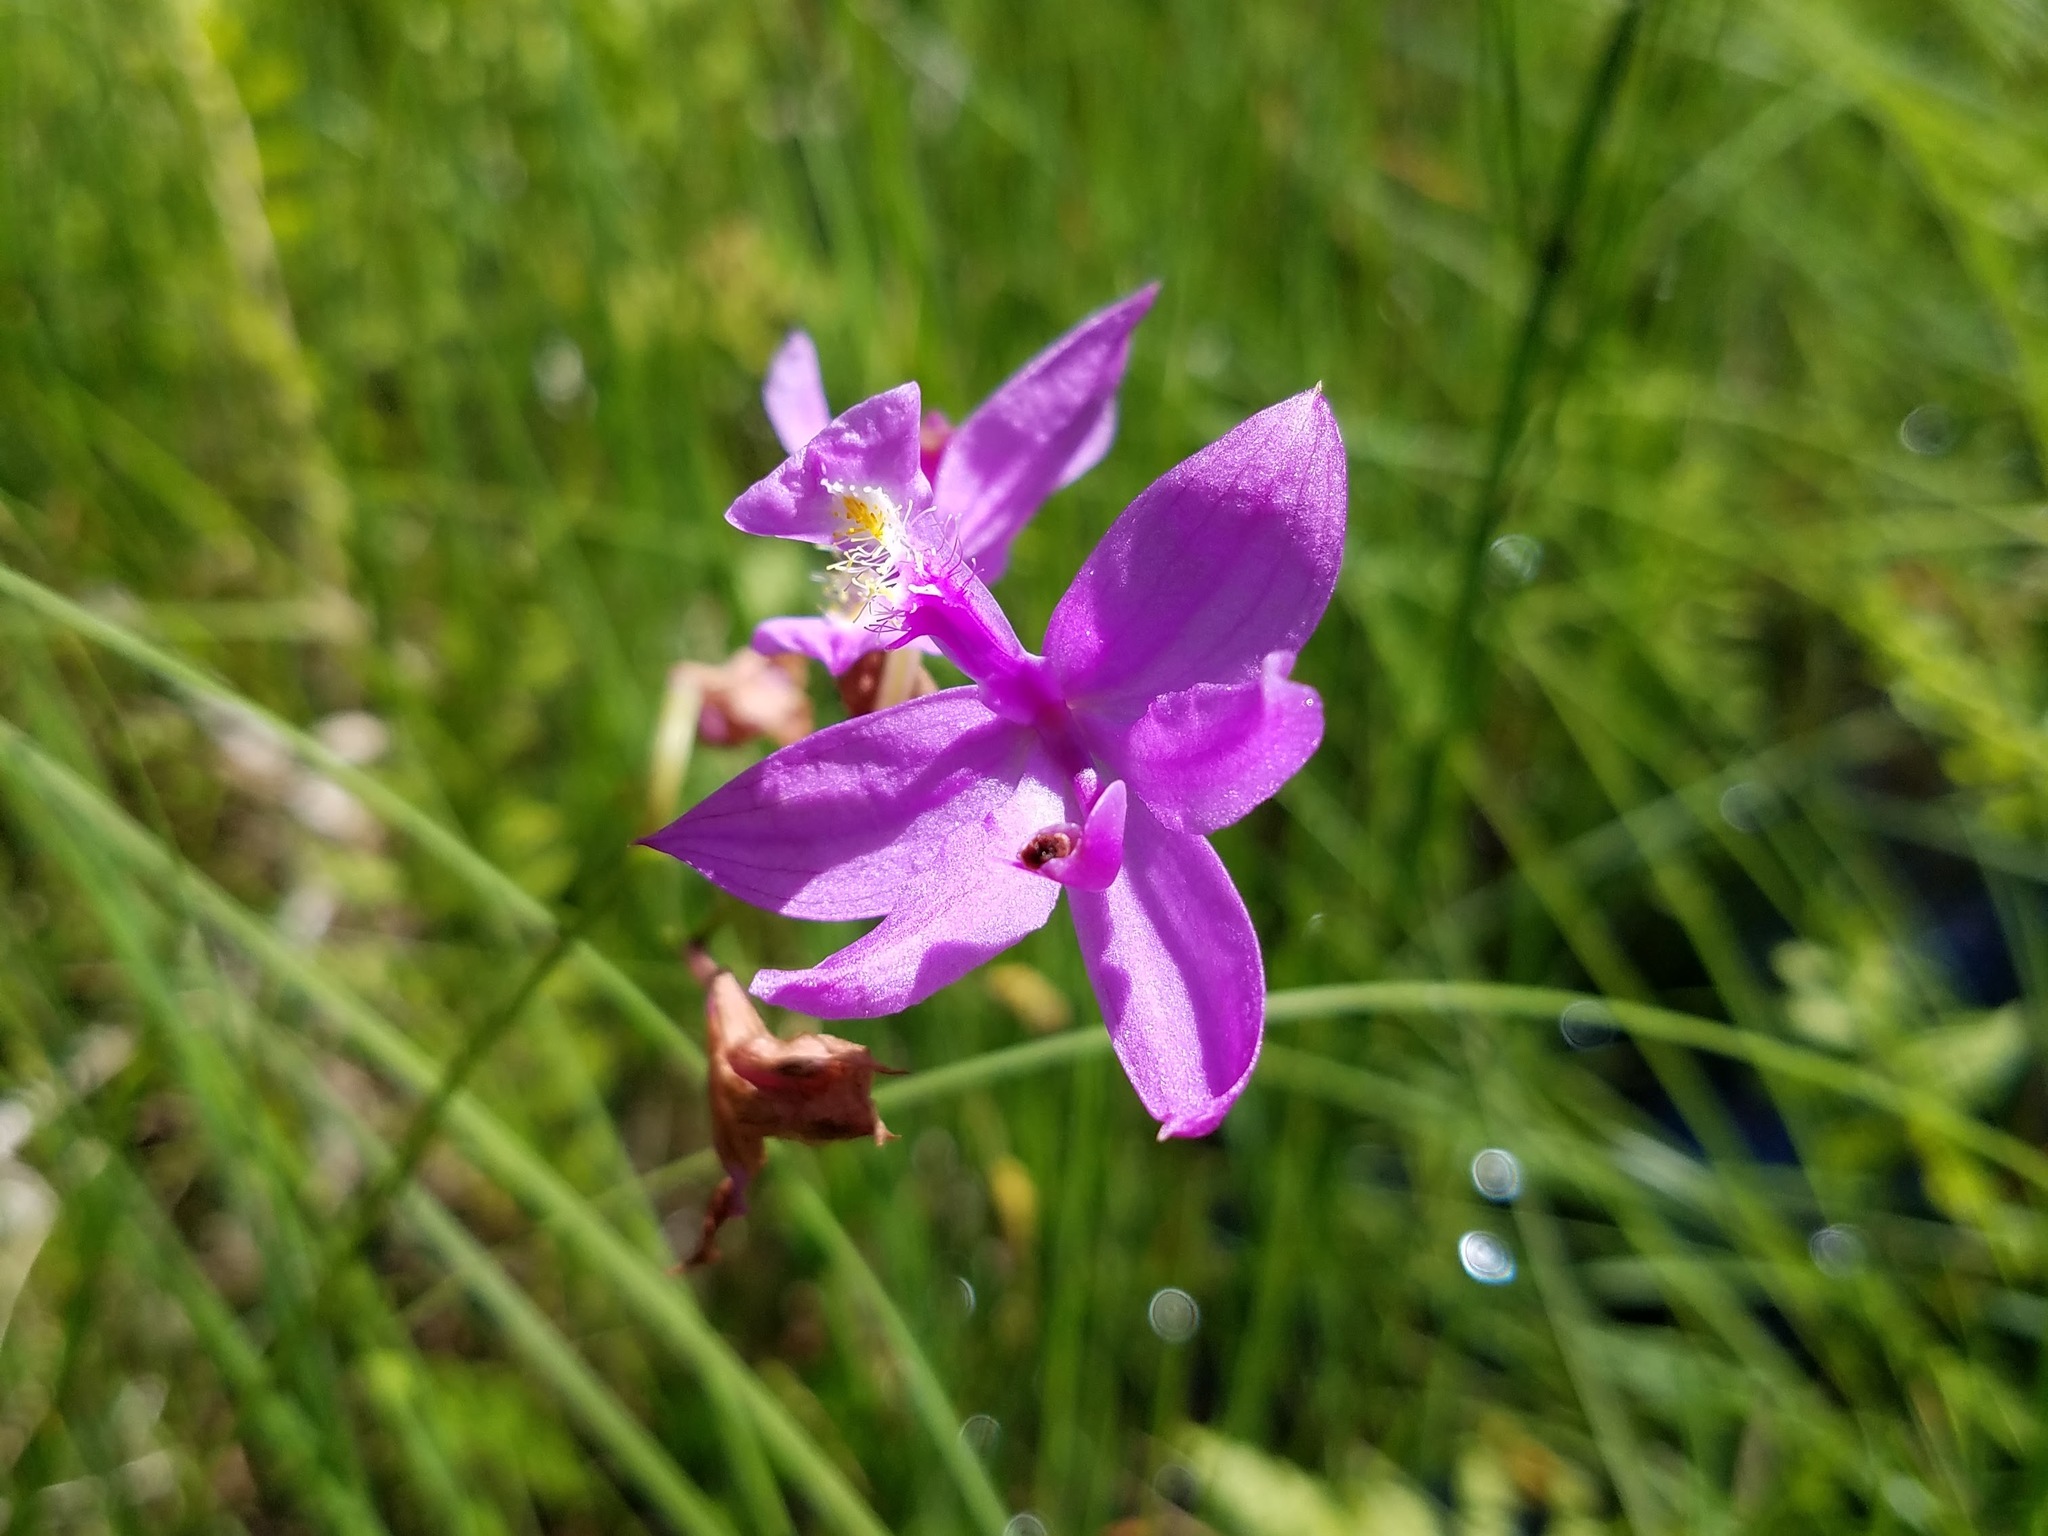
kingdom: Plantae
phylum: Tracheophyta
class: Liliopsida
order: Asparagales
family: Orchidaceae
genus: Calopogon
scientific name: Calopogon tuberosus
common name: Grass-pink
